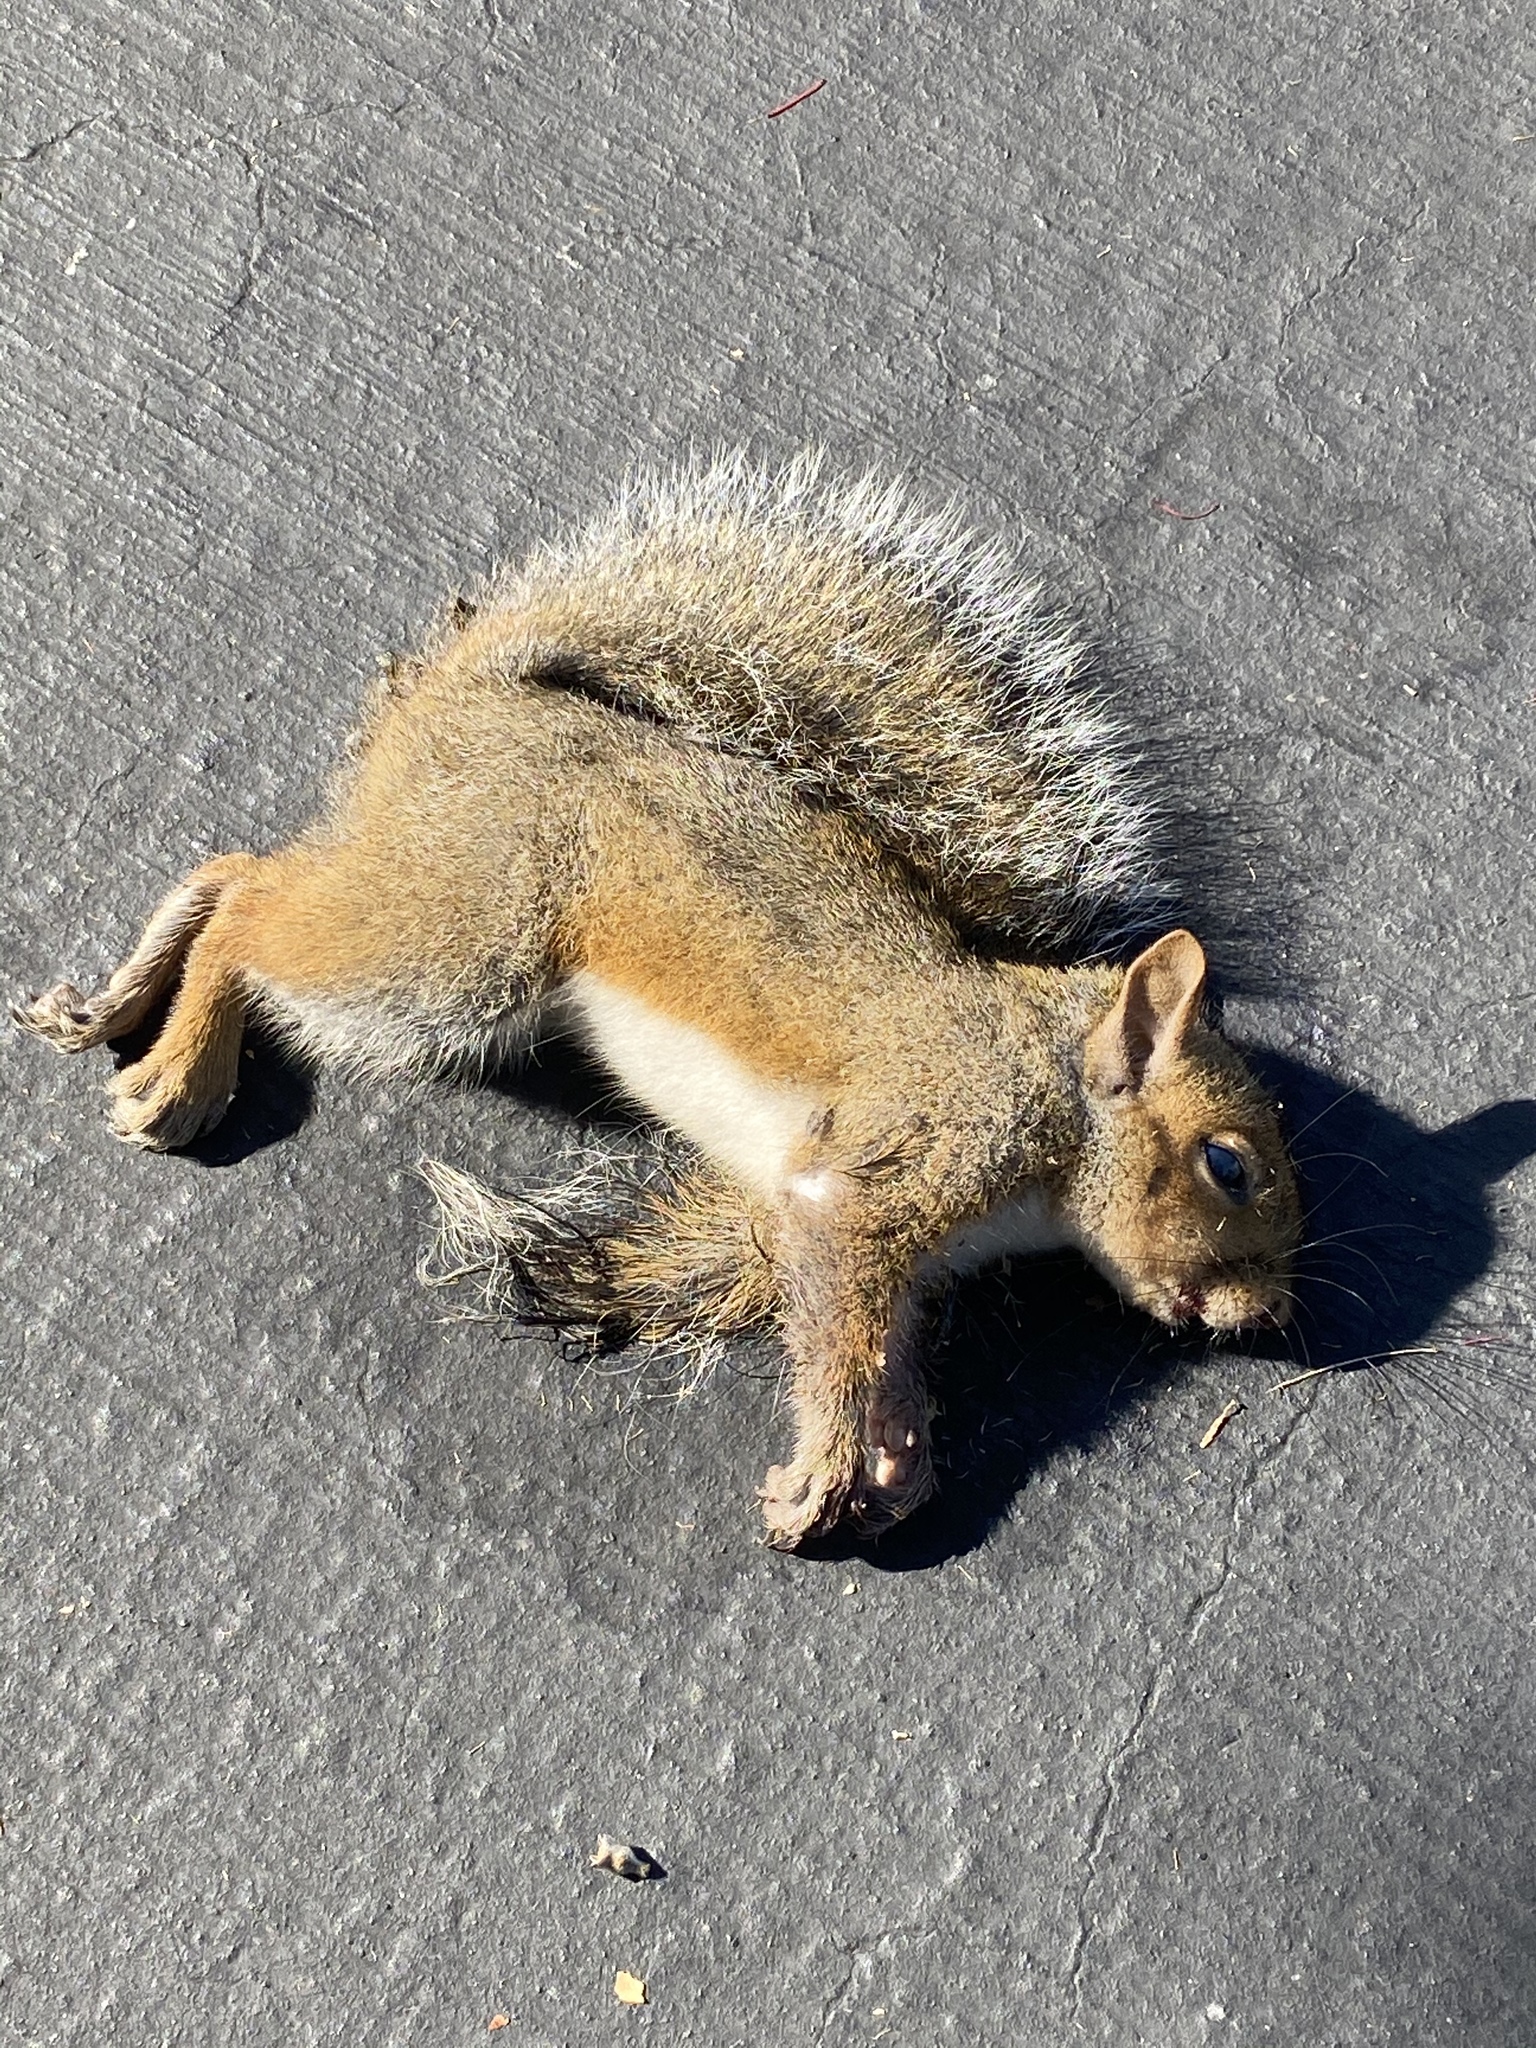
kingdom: Animalia
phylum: Chordata
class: Mammalia
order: Rodentia
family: Sciuridae
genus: Sciurus
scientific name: Sciurus carolinensis
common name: Eastern gray squirrel
